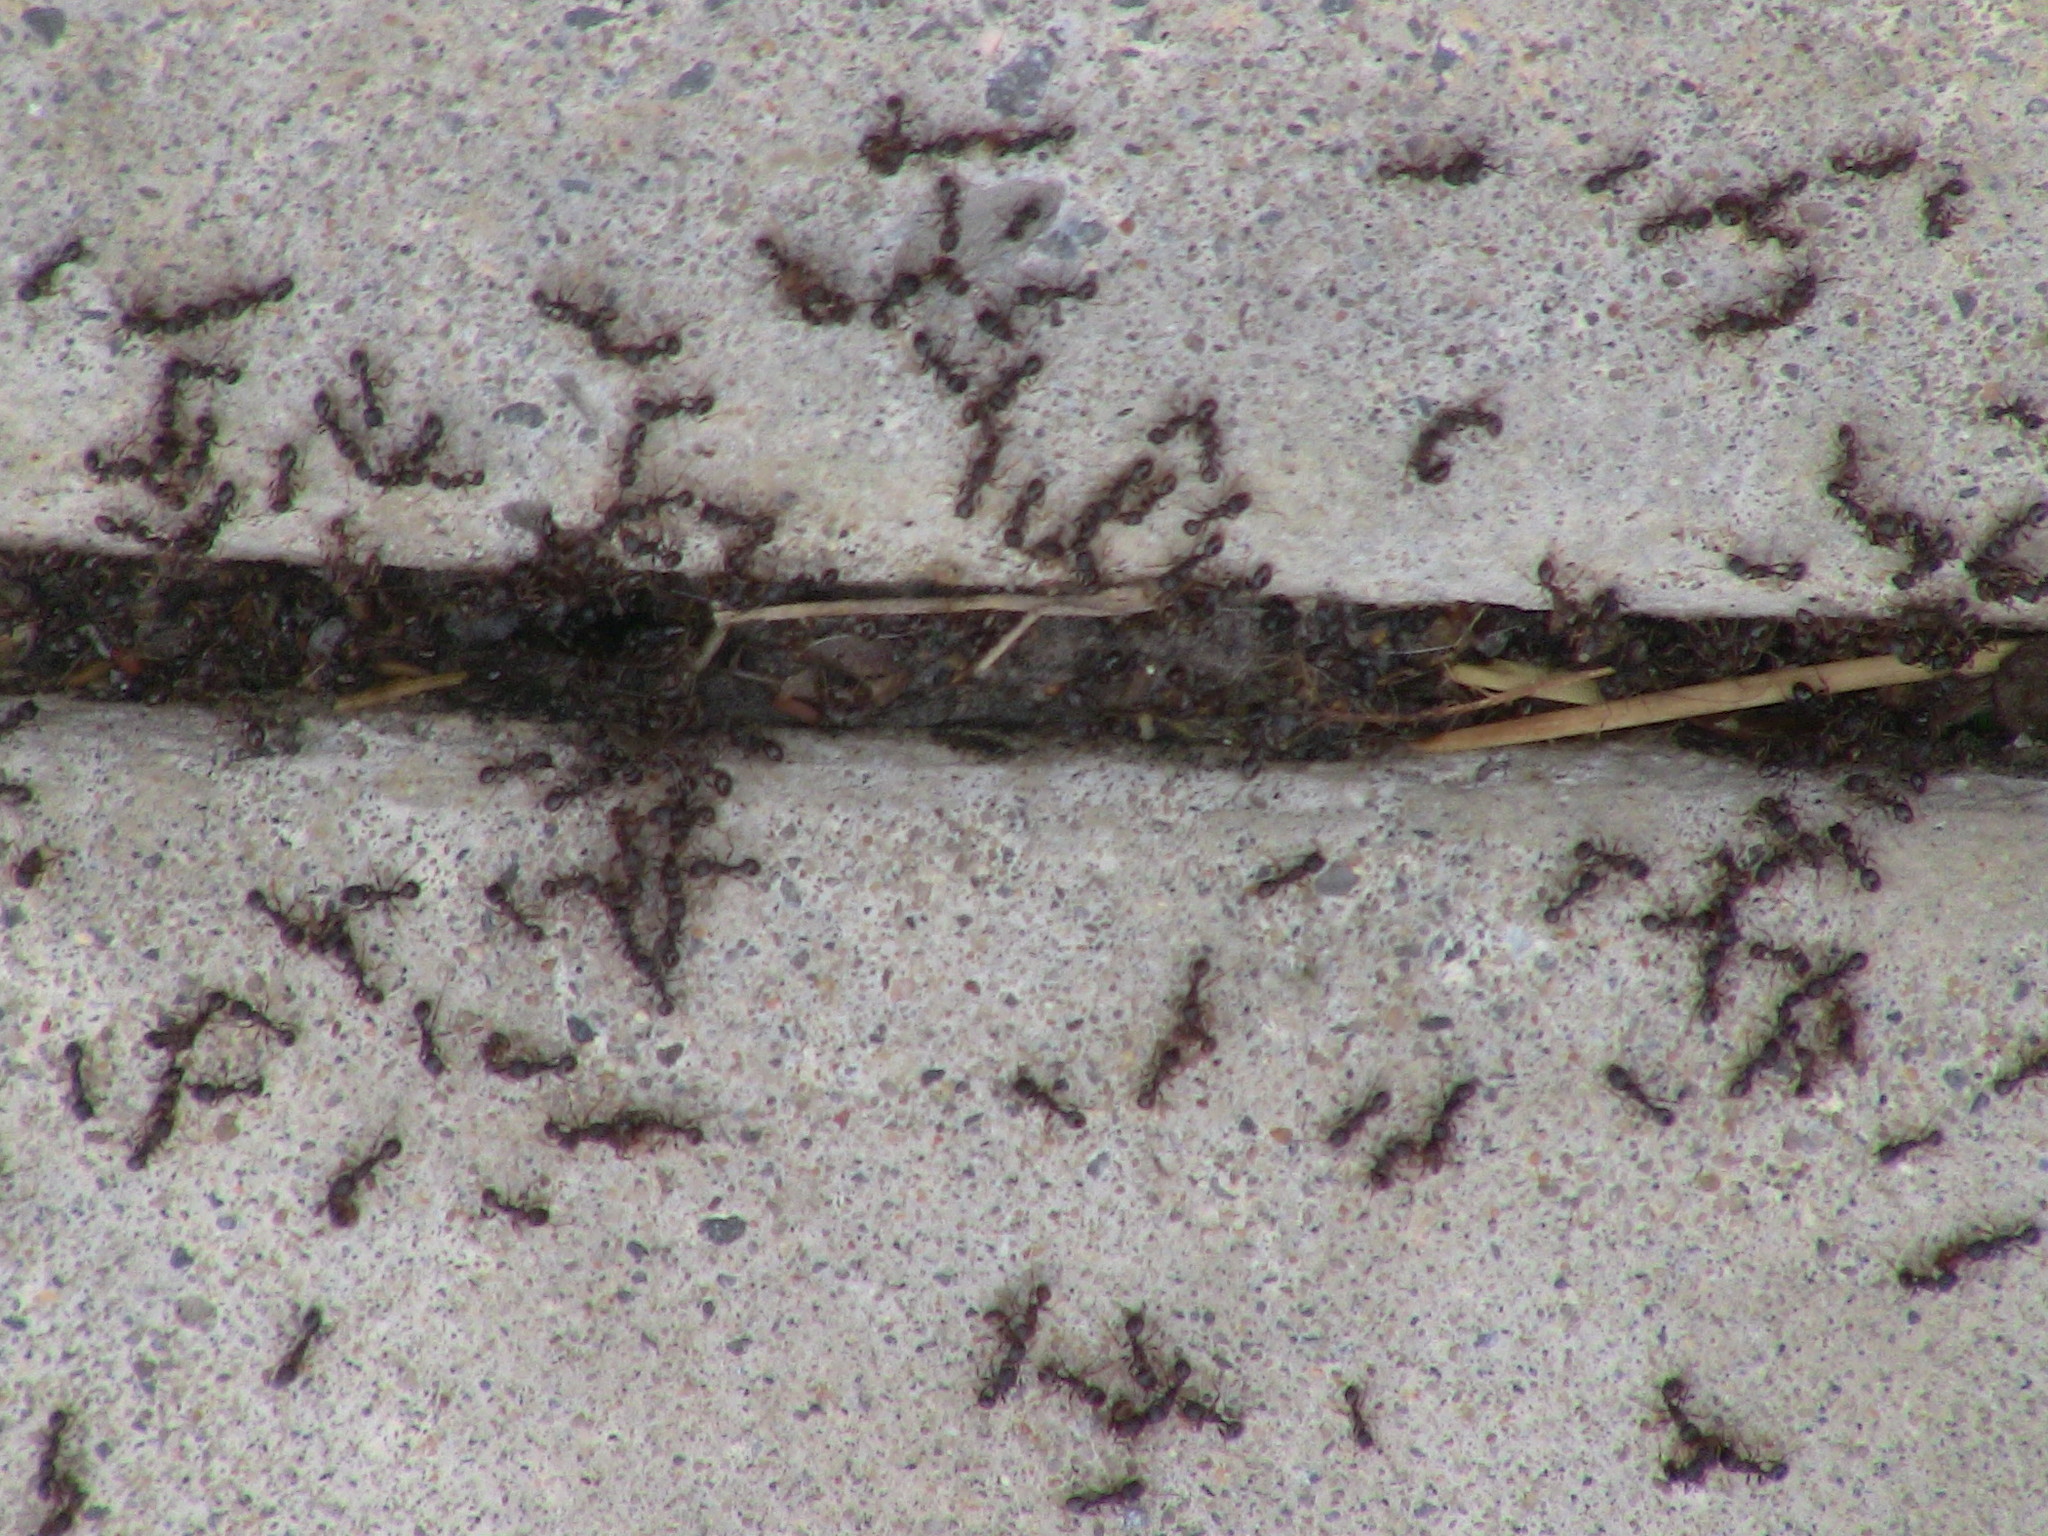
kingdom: Animalia
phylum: Arthropoda
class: Insecta
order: Hymenoptera
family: Formicidae
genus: Tetramorium
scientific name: Tetramorium immigrans
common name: Pavement ant
